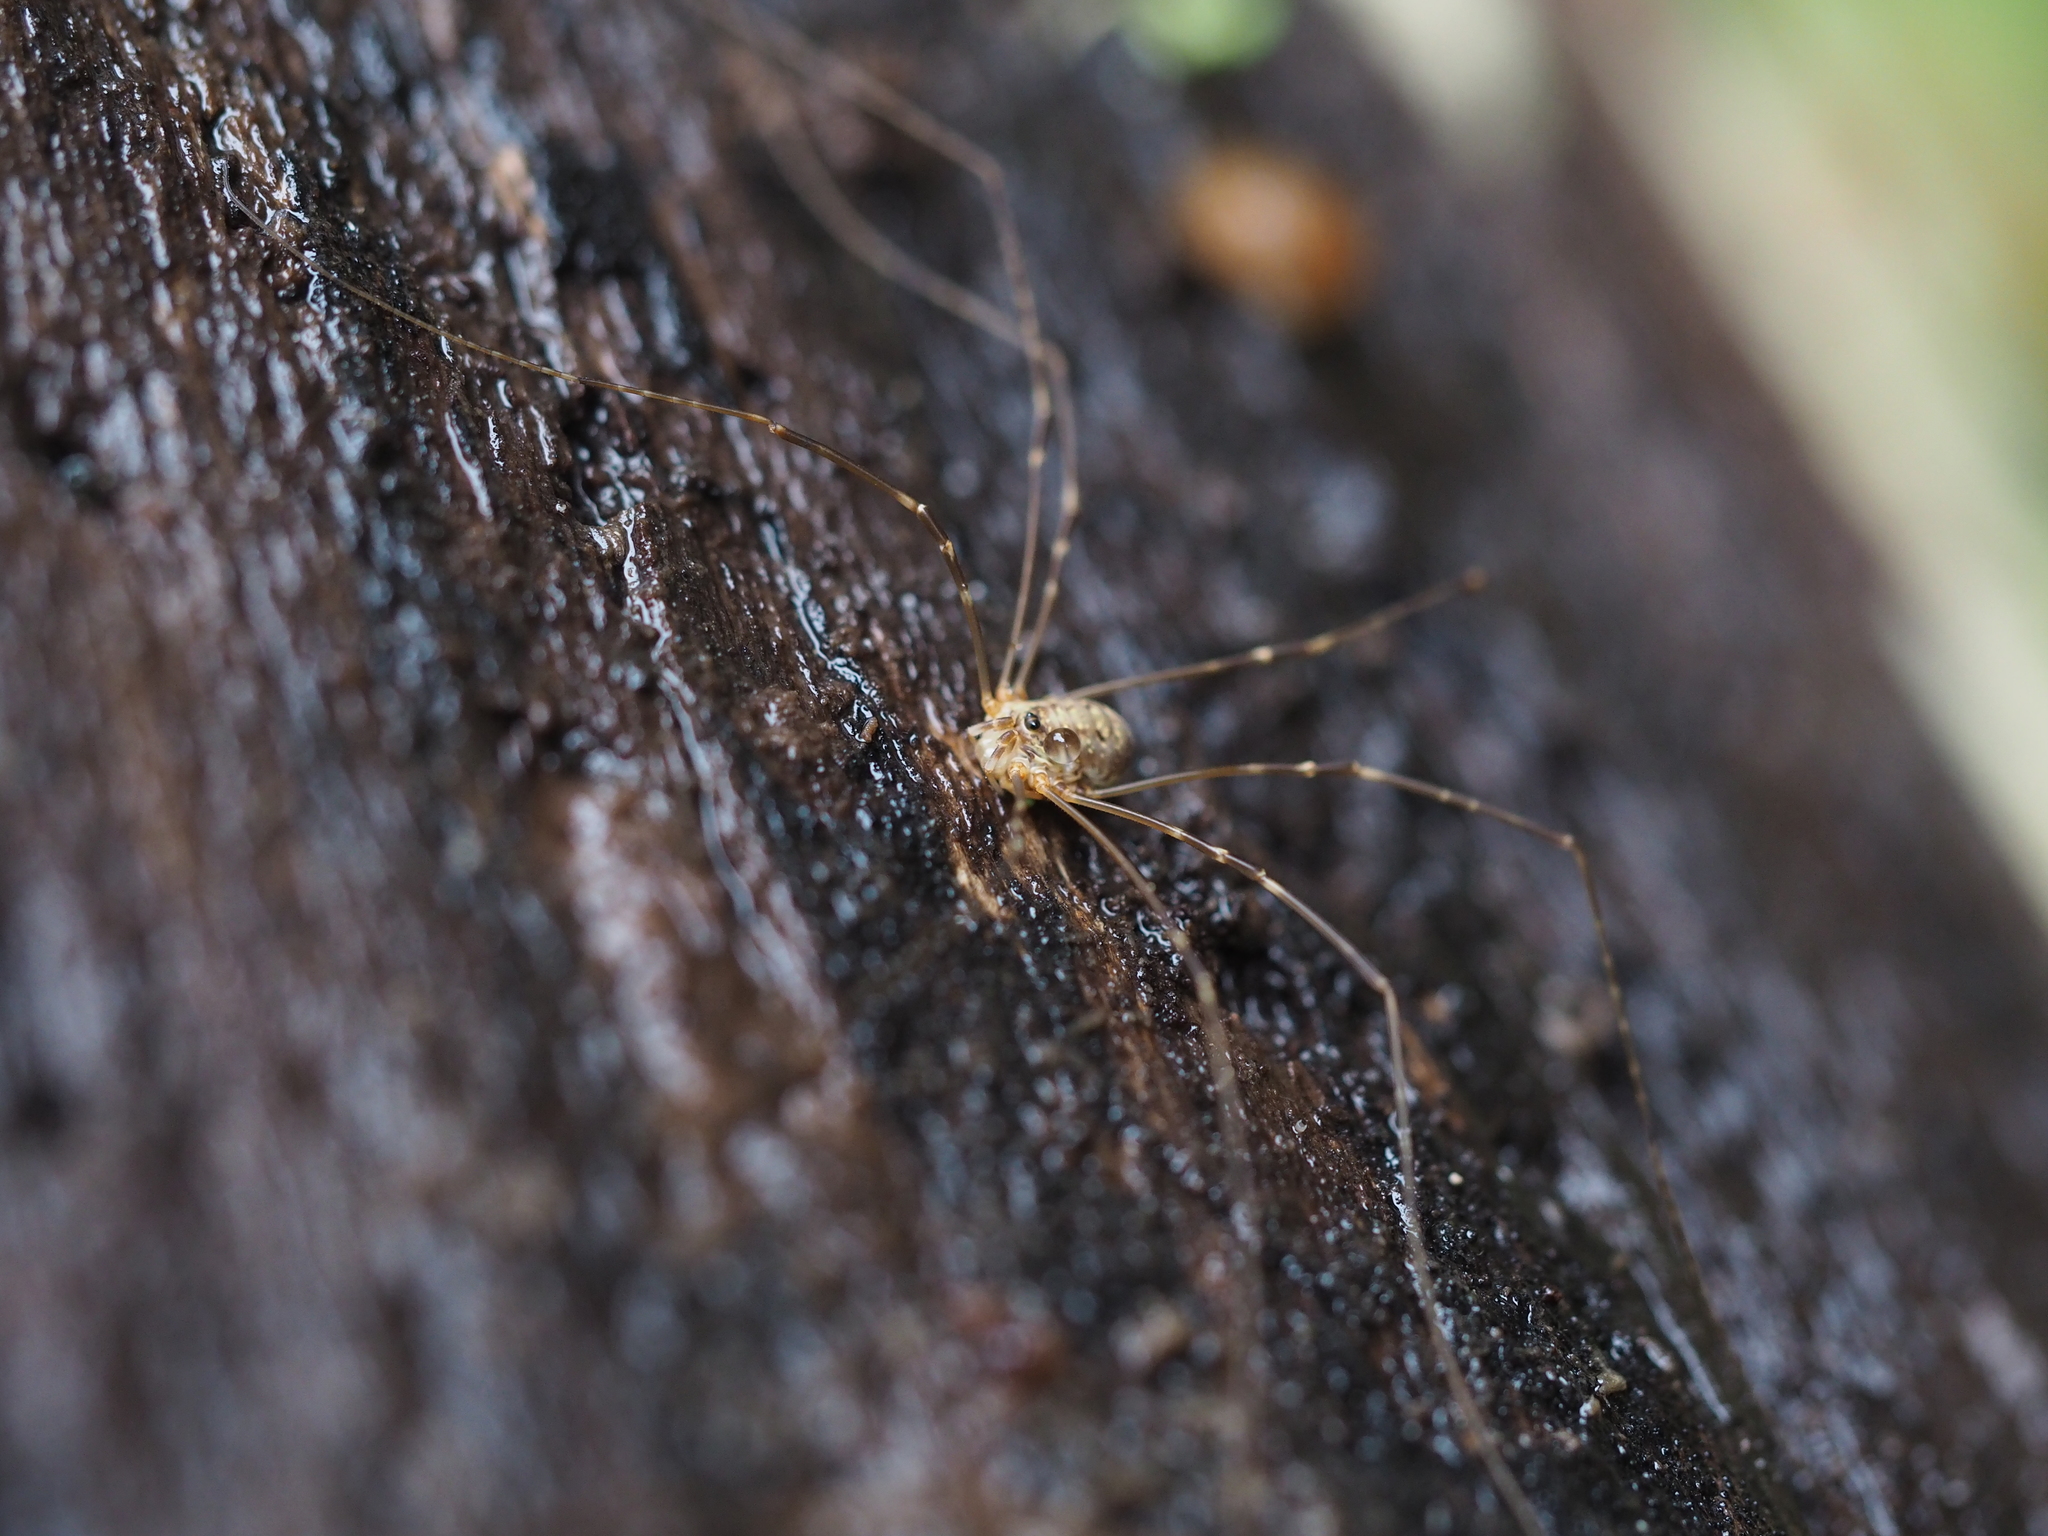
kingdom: Animalia
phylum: Arthropoda
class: Arachnida
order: Opiliones
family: Phalangiidae
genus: Amilenus
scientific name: Amilenus aurantiacus
